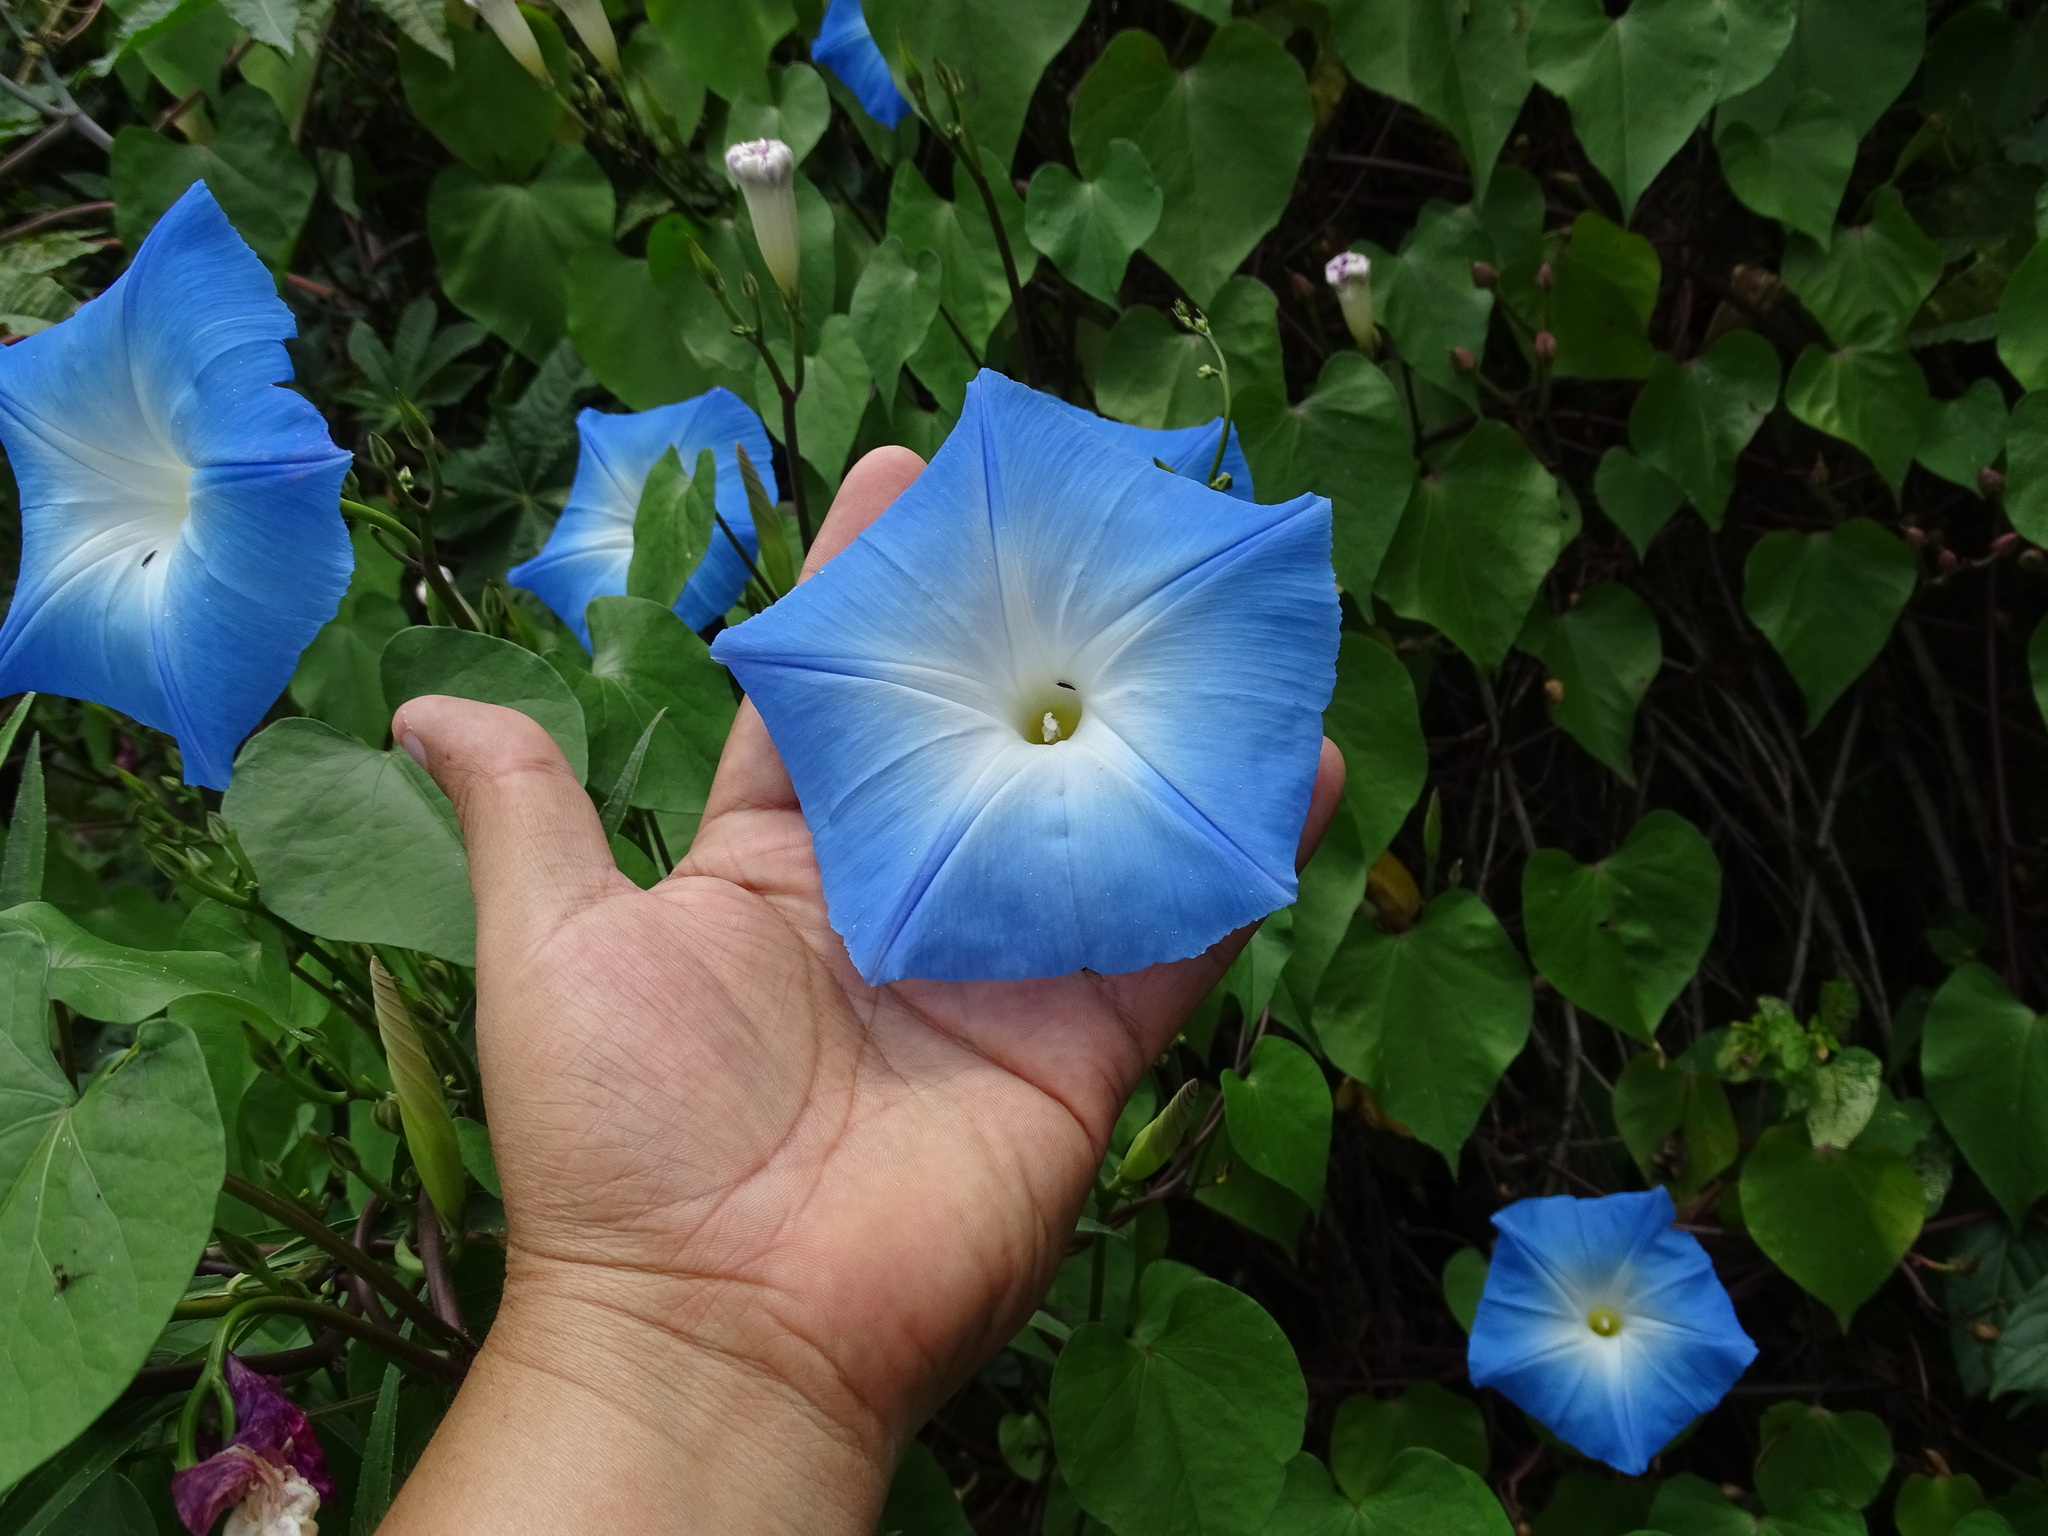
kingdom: Plantae
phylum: Tracheophyta
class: Magnoliopsida
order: Solanales
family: Convolvulaceae
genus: Ipomoea
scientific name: Ipomoea tricolor
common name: Morning-glory
